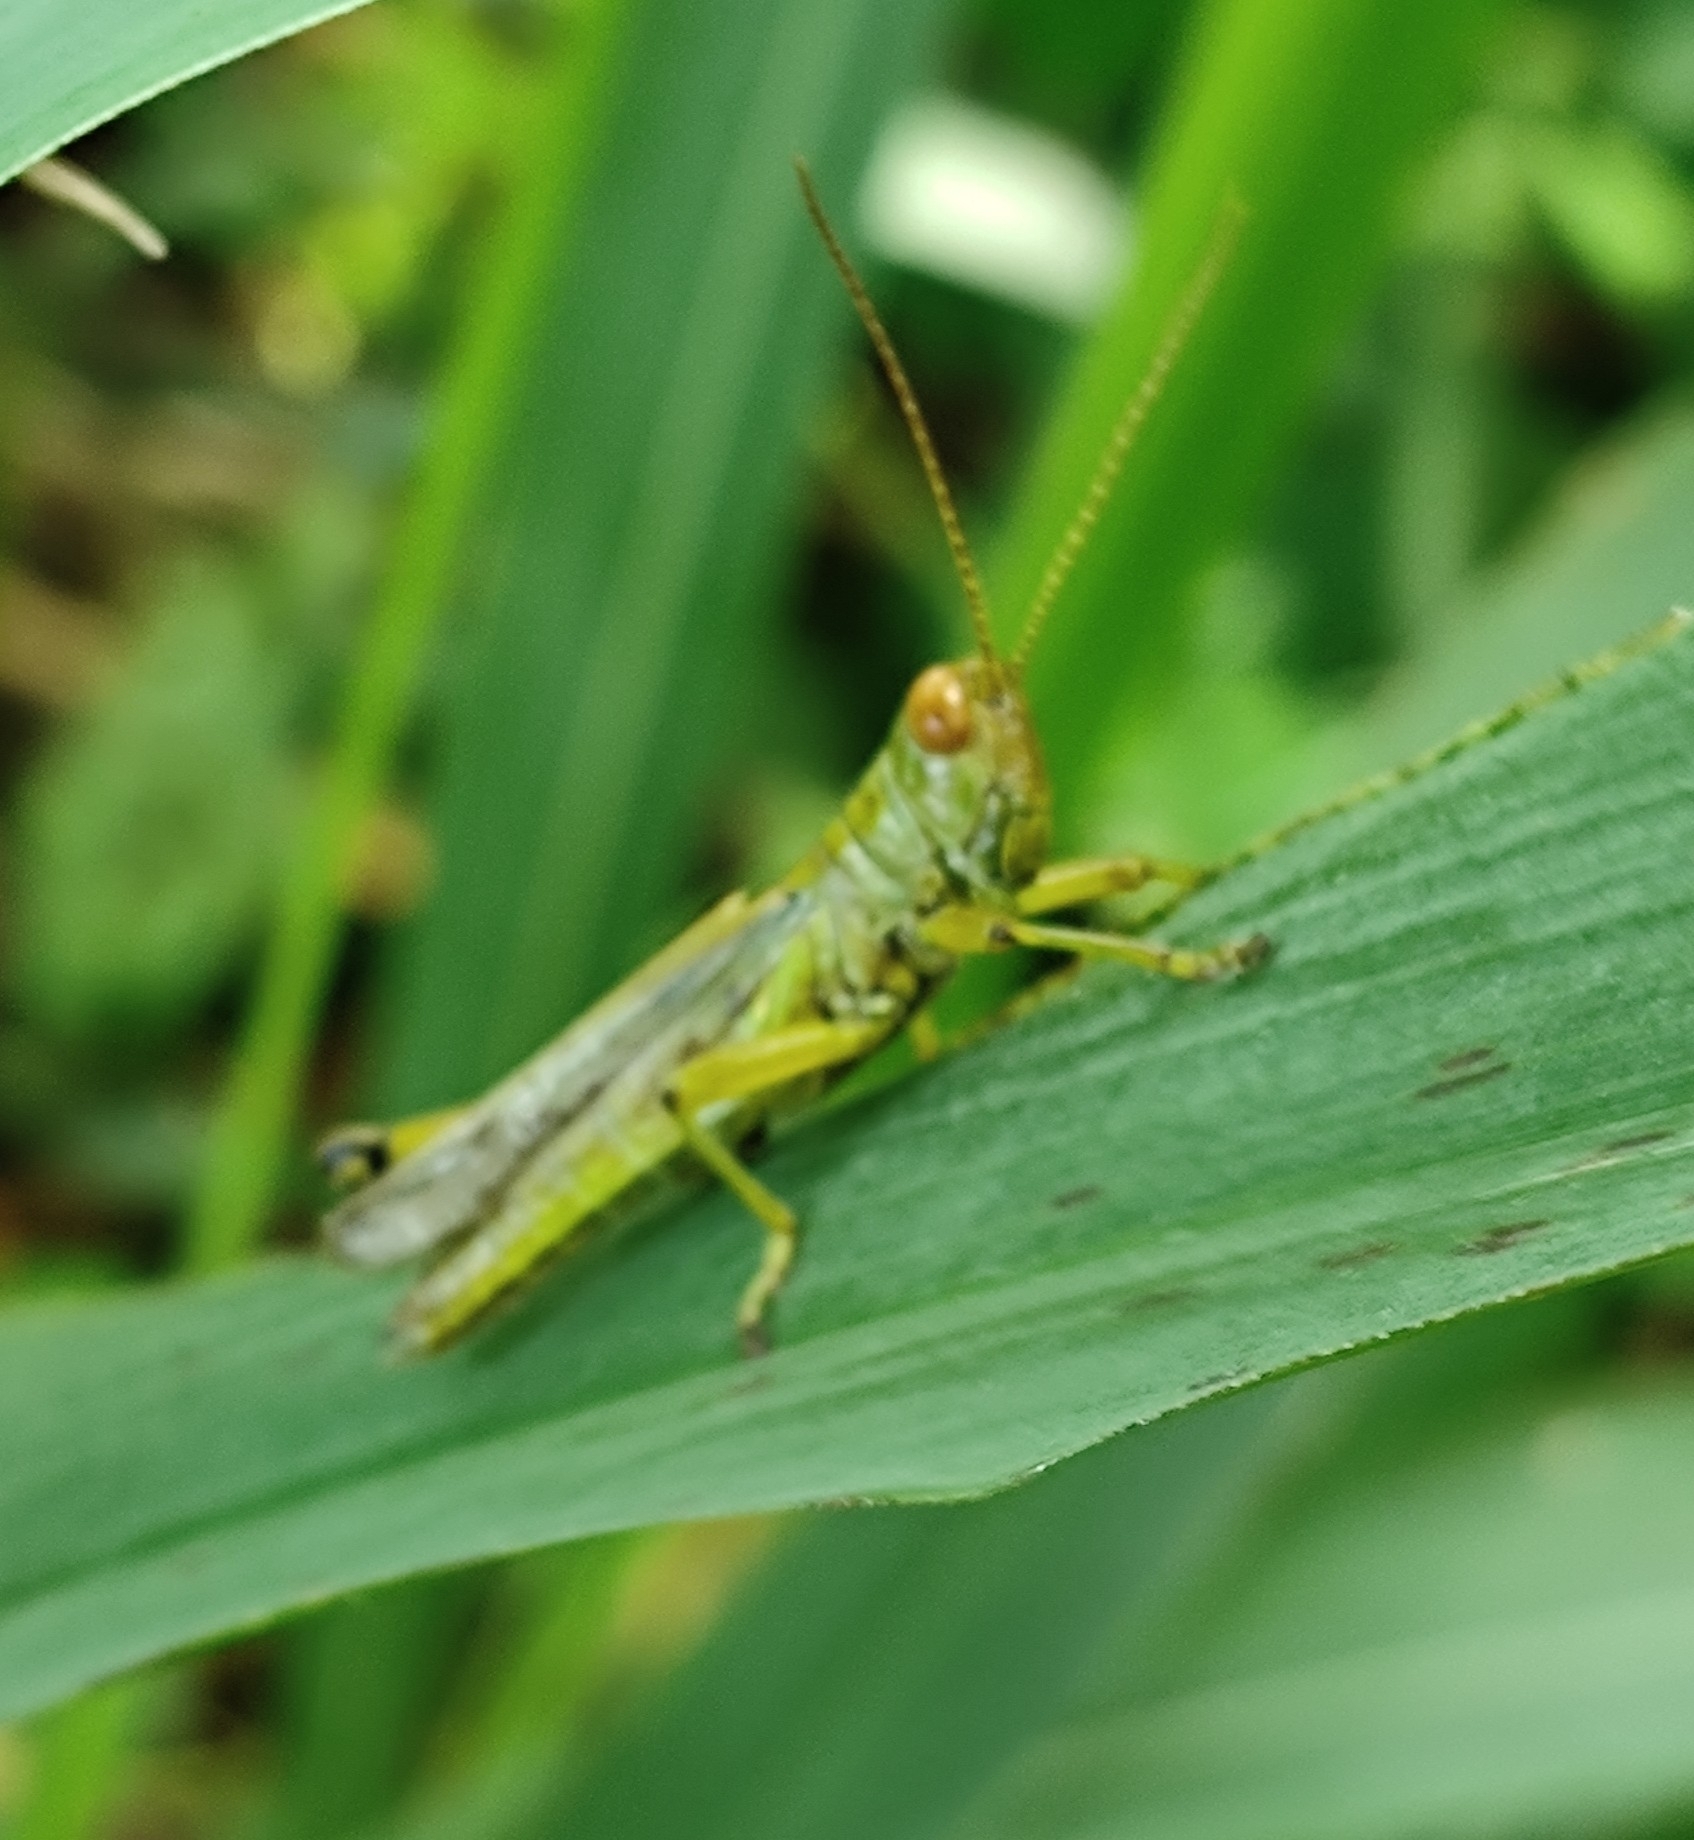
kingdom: Animalia
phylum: Arthropoda
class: Insecta
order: Orthoptera
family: Acrididae
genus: Hieroglyphus
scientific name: Hieroglyphus banian
